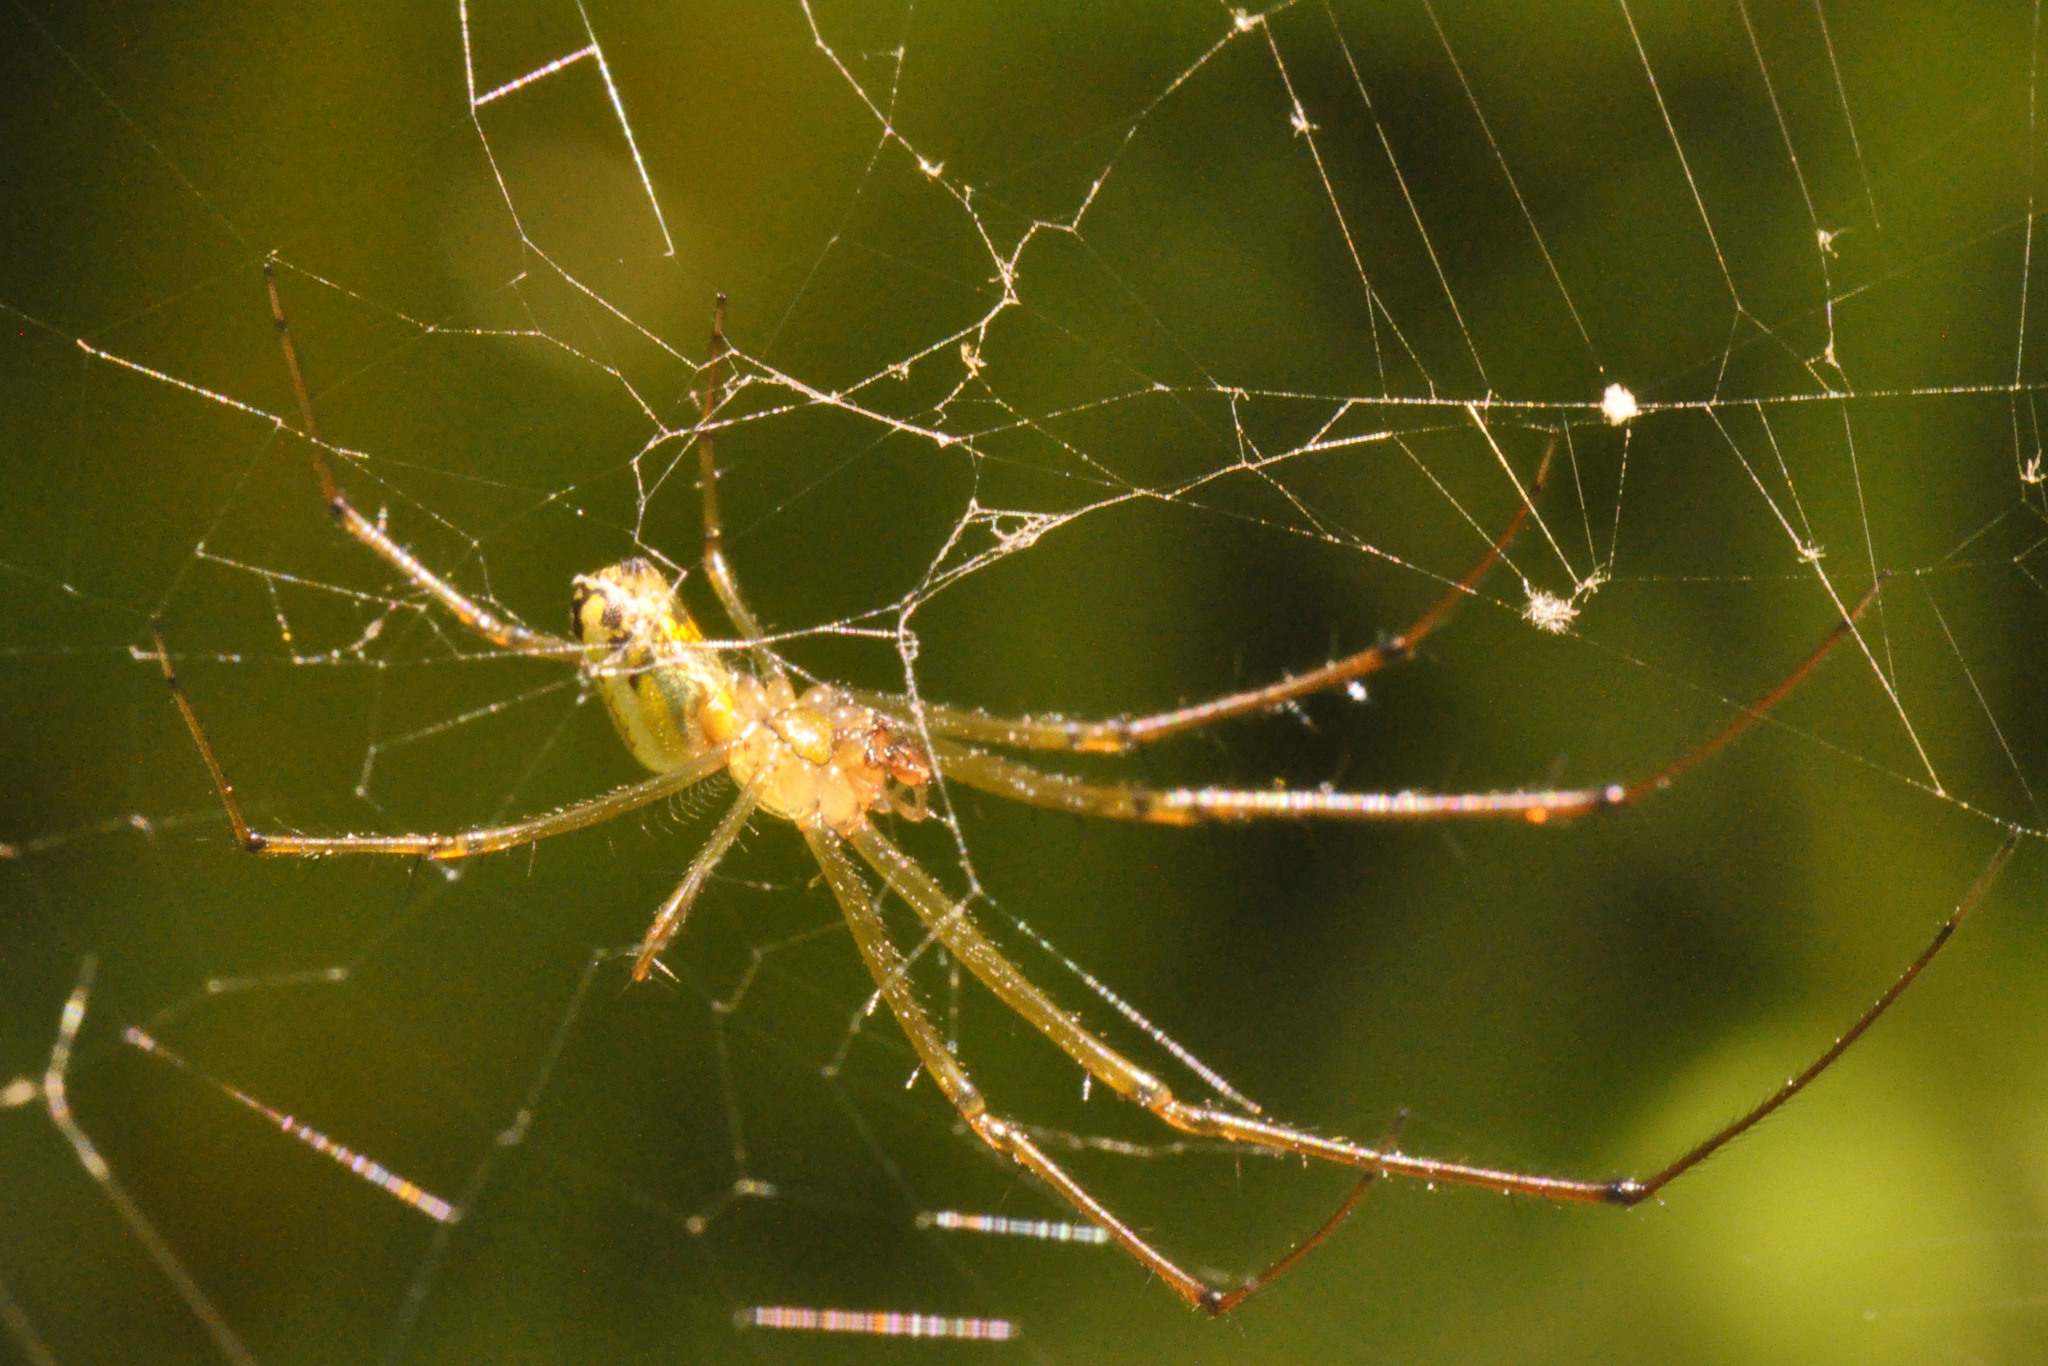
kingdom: Animalia
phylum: Arthropoda
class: Arachnida
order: Araneae
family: Tetragnathidae
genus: Leucauge
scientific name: Leucauge venusta
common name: Longjawed orb weavers
